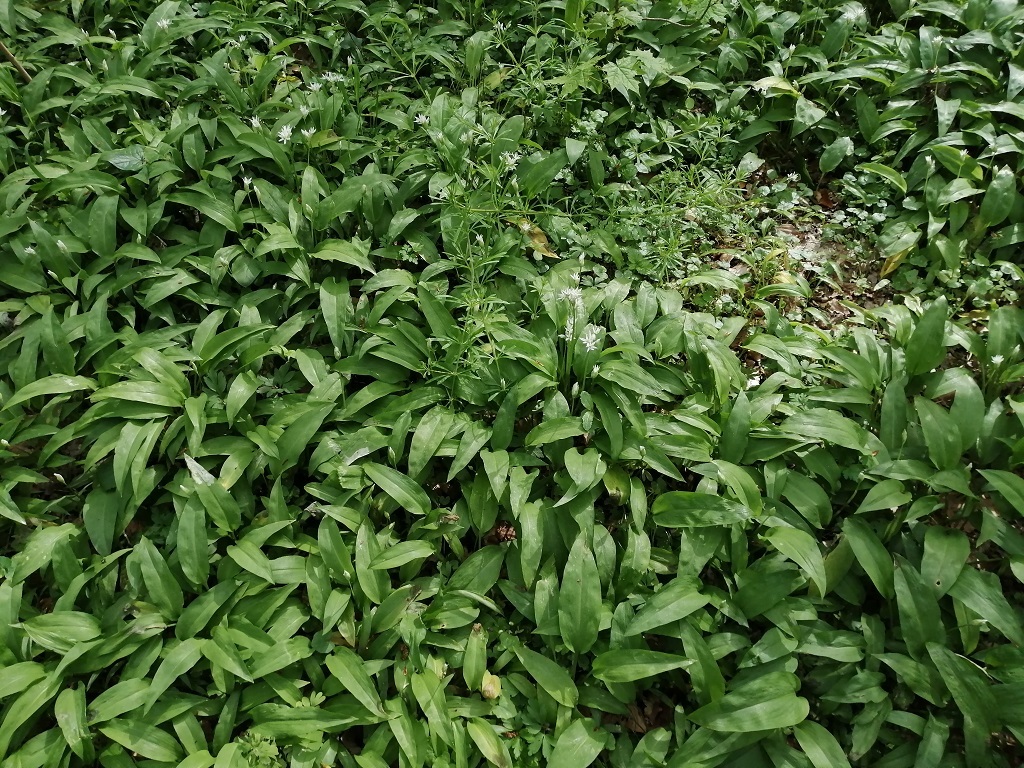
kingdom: Plantae
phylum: Tracheophyta
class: Liliopsida
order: Asparagales
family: Amaryllidaceae
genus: Allium
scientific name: Allium ursinum
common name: Ramsons
